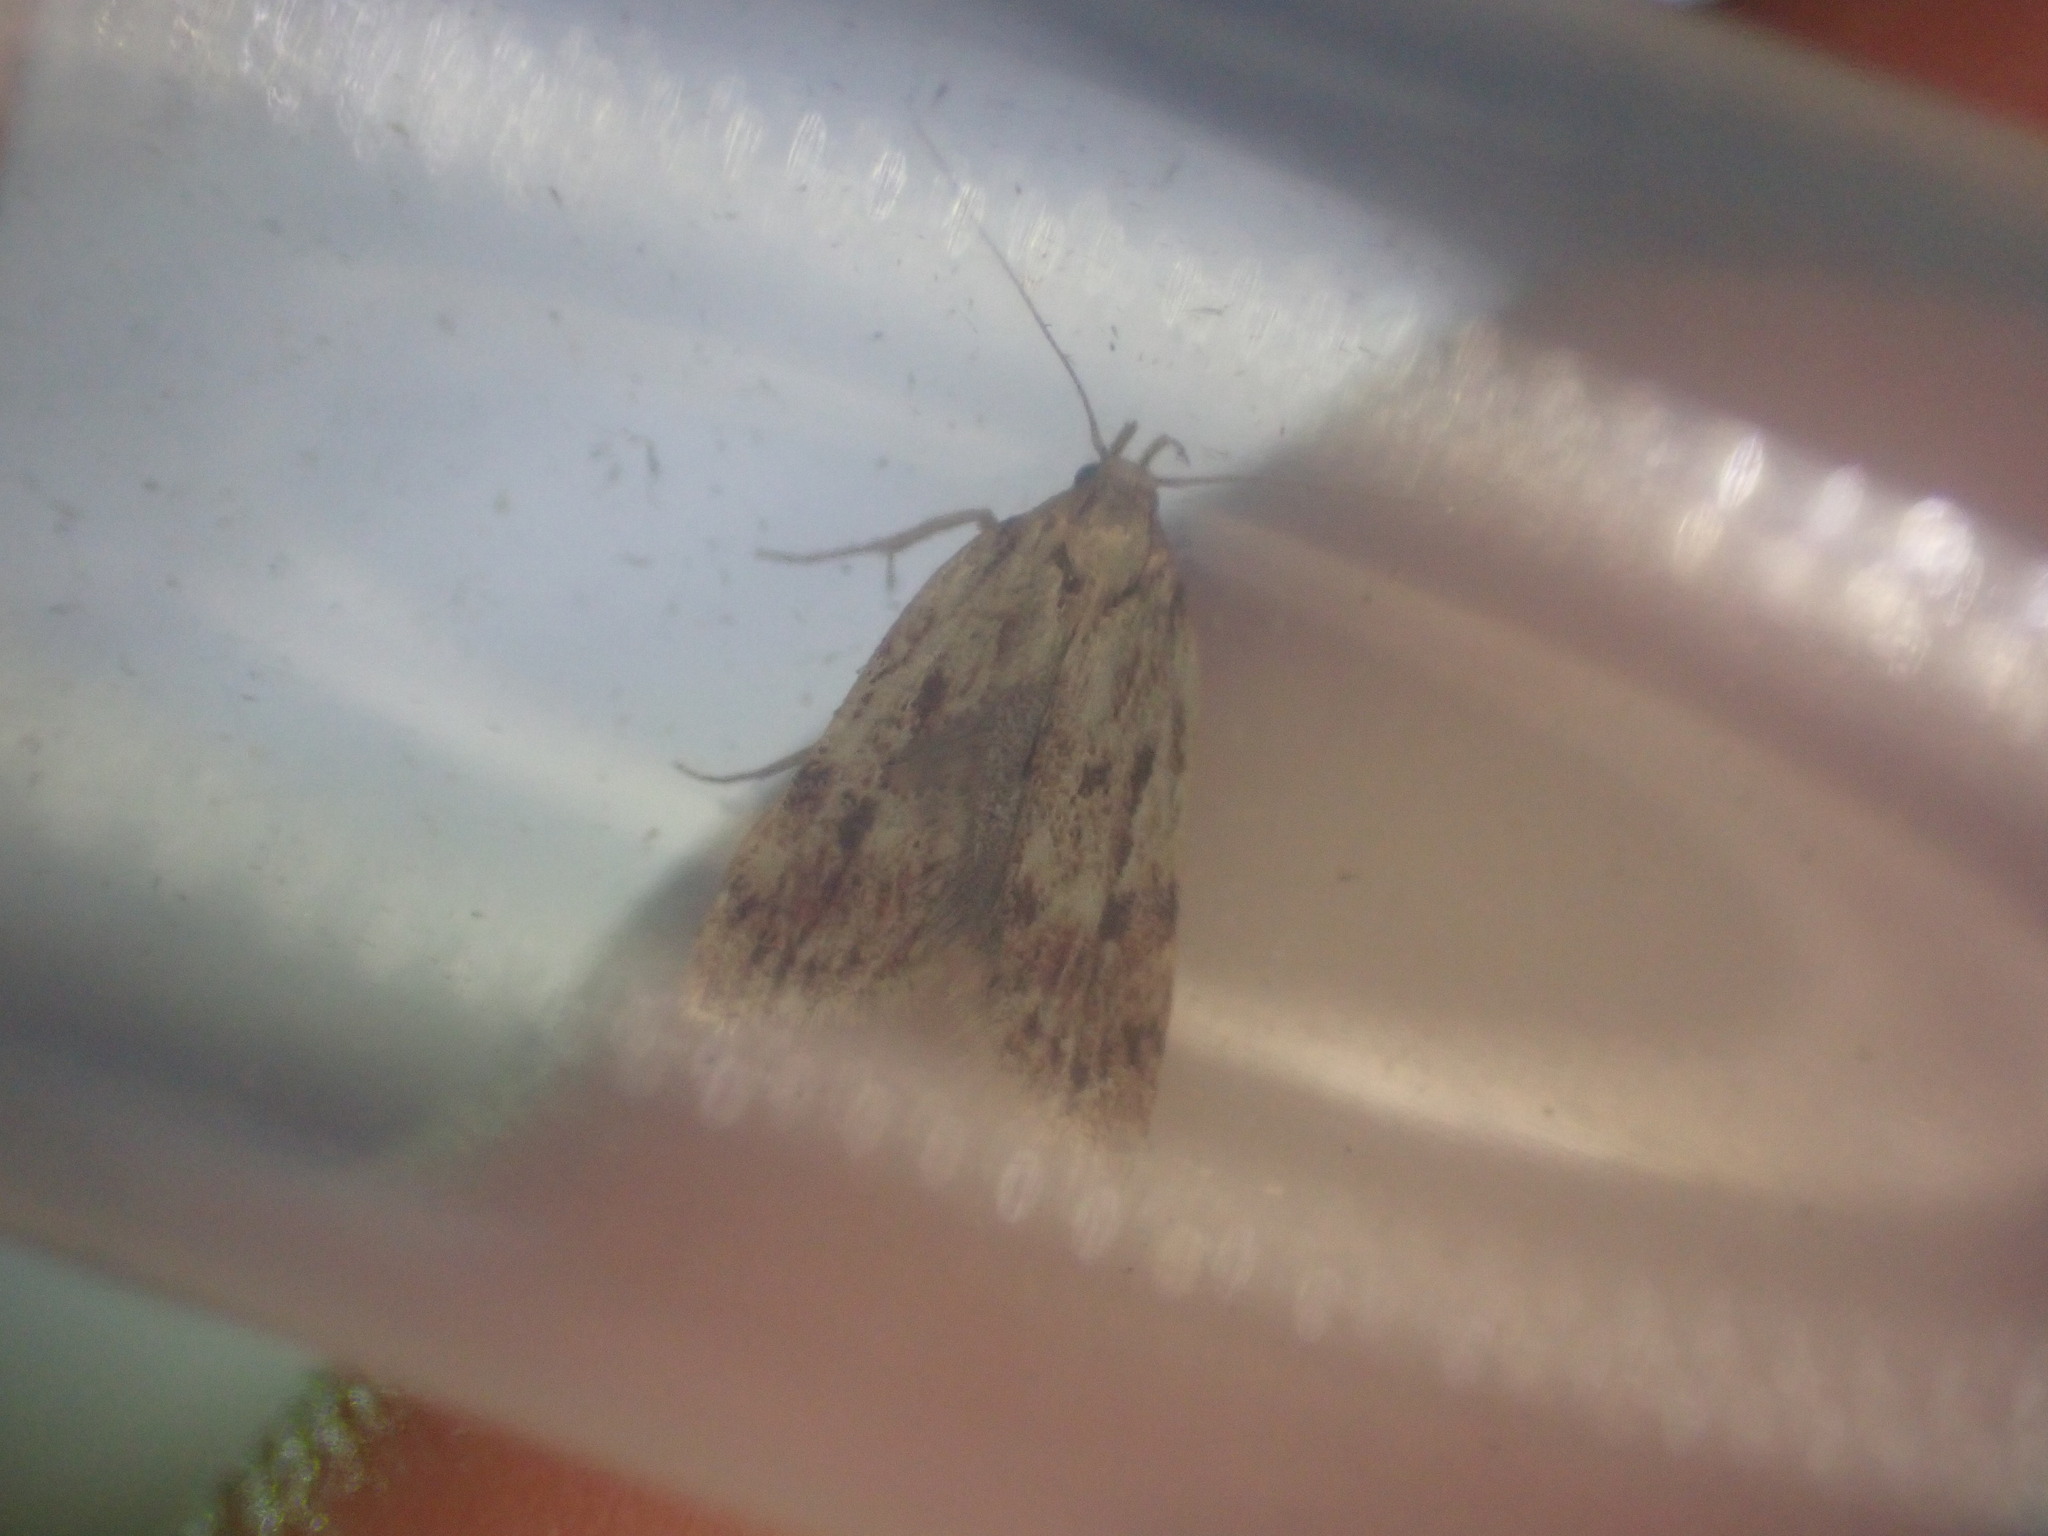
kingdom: Animalia
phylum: Arthropoda
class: Insecta
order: Lepidoptera
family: Oecophoridae
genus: Eulechria
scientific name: Eulechria zophoessa
